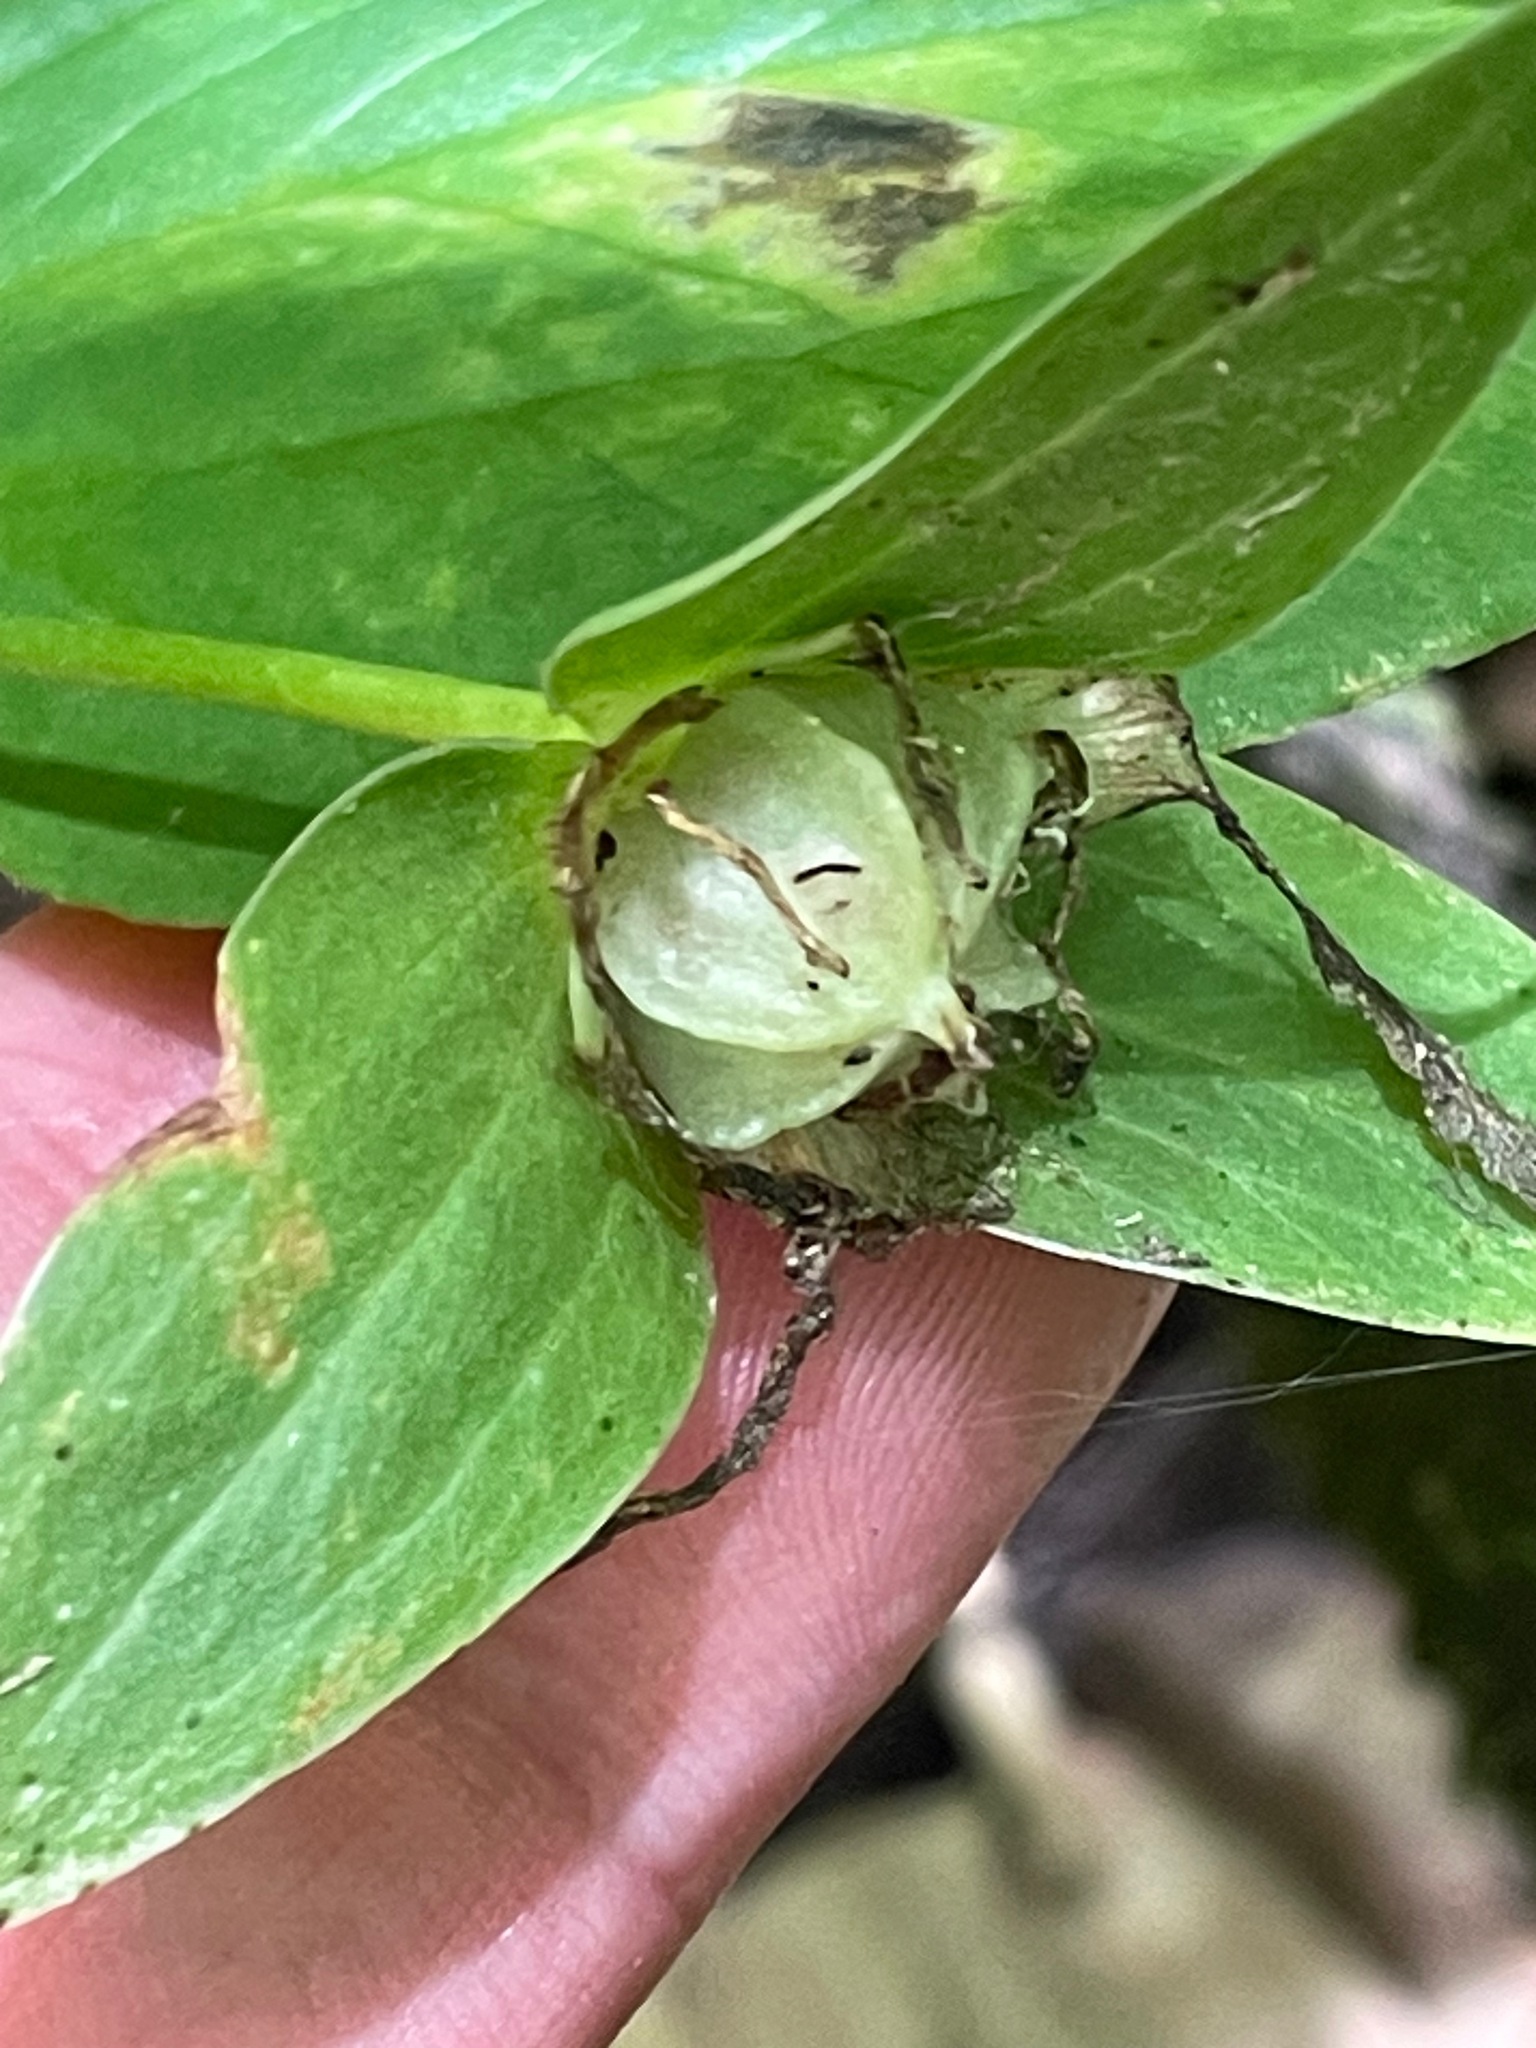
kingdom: Plantae
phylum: Tracheophyta
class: Liliopsida
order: Liliales
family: Melanthiaceae
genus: Trillium
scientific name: Trillium grandiflorum
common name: Great white trillium
